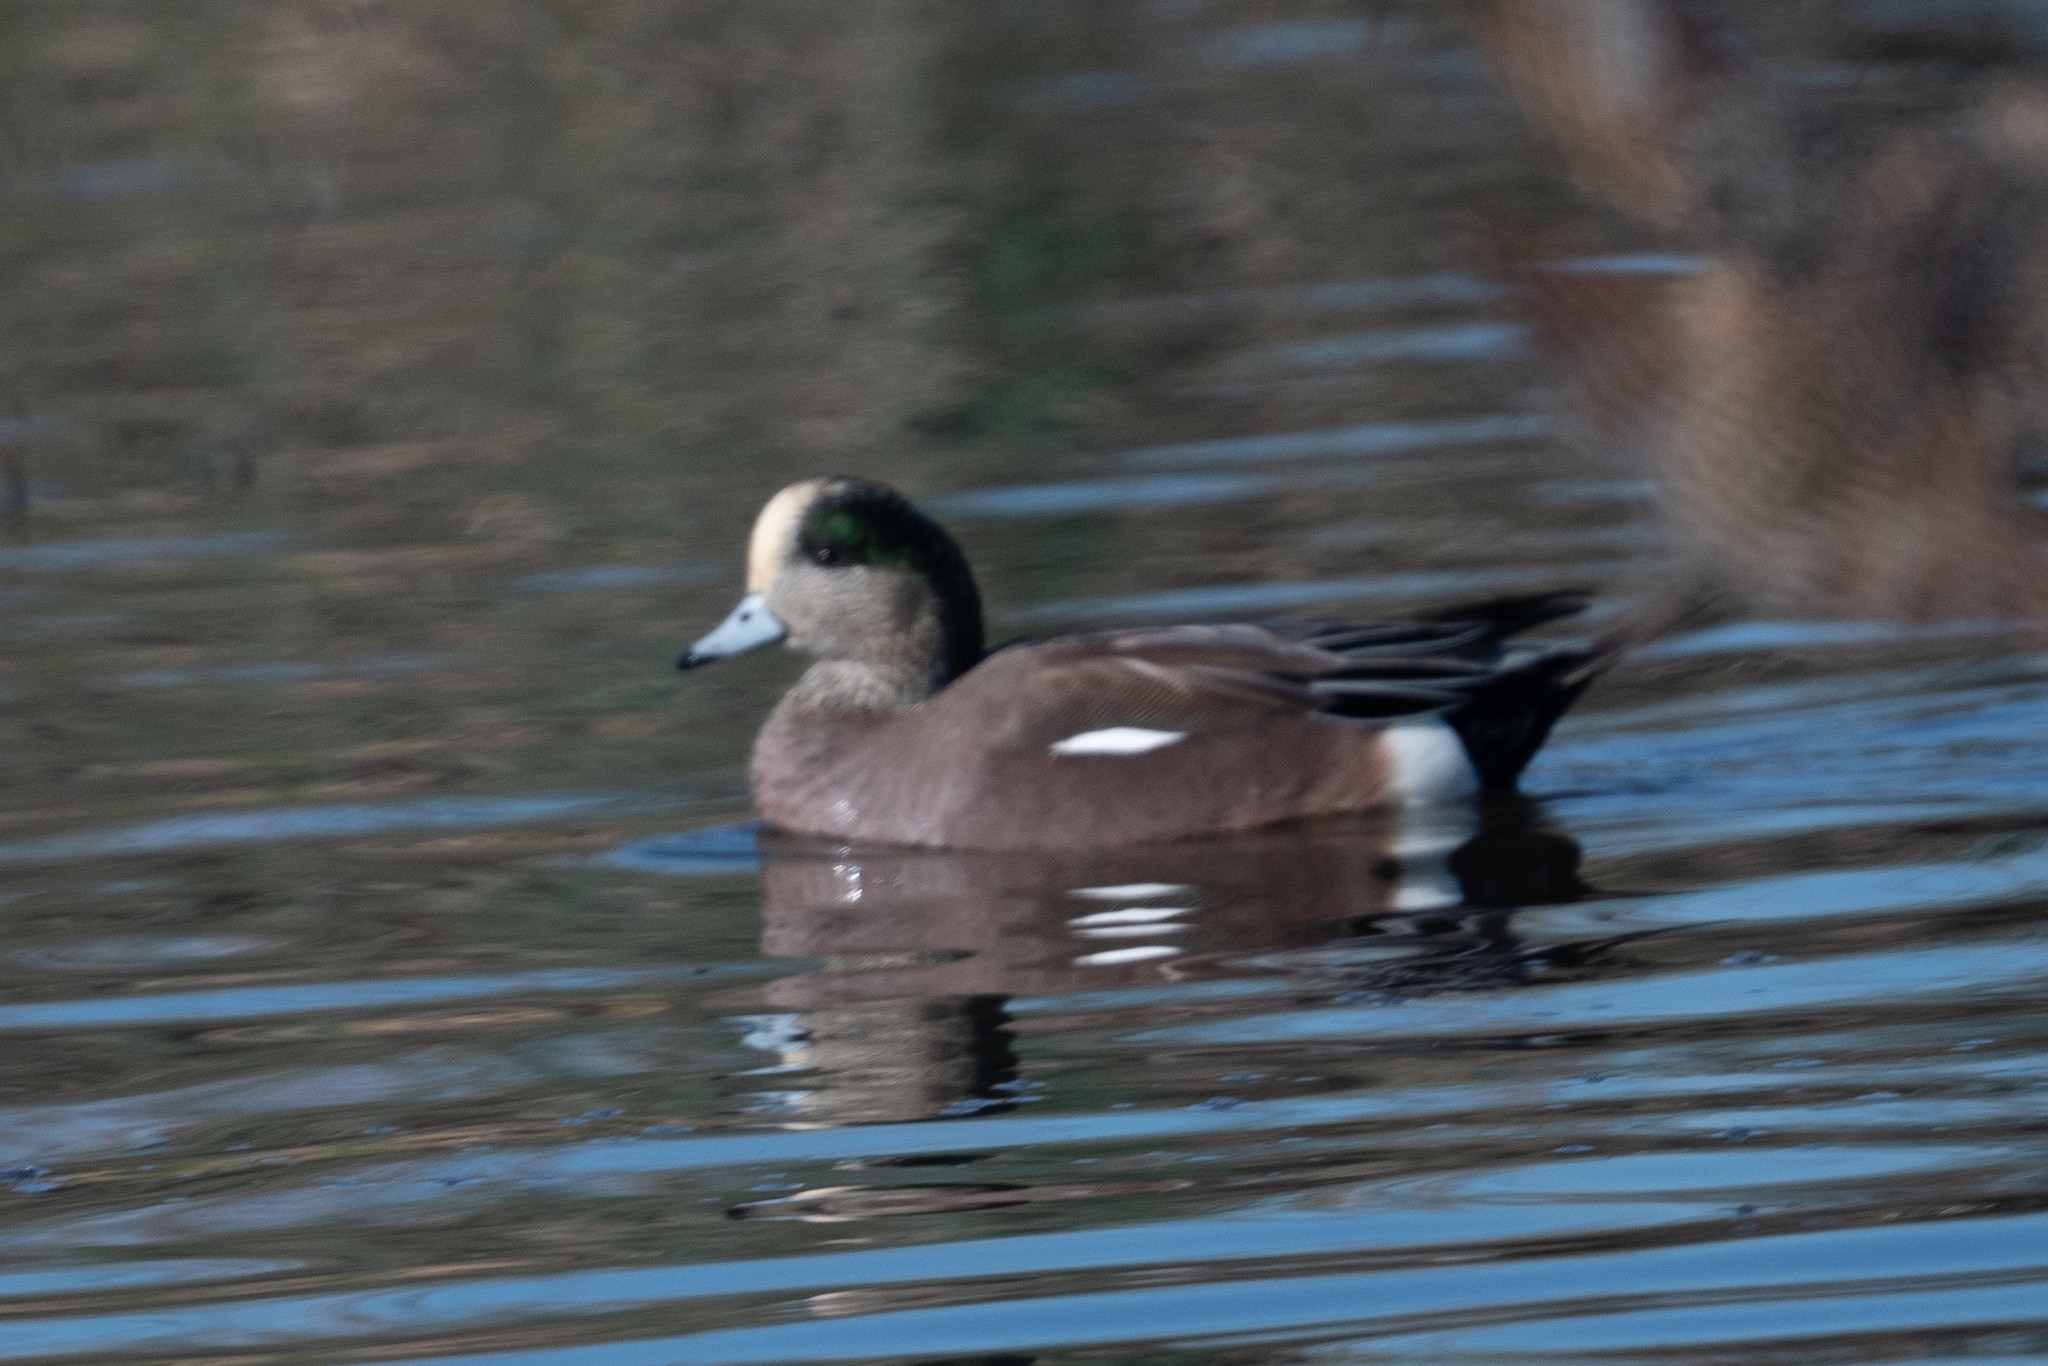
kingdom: Animalia
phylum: Chordata
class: Aves
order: Anseriformes
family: Anatidae
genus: Mareca
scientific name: Mareca americana
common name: American wigeon
